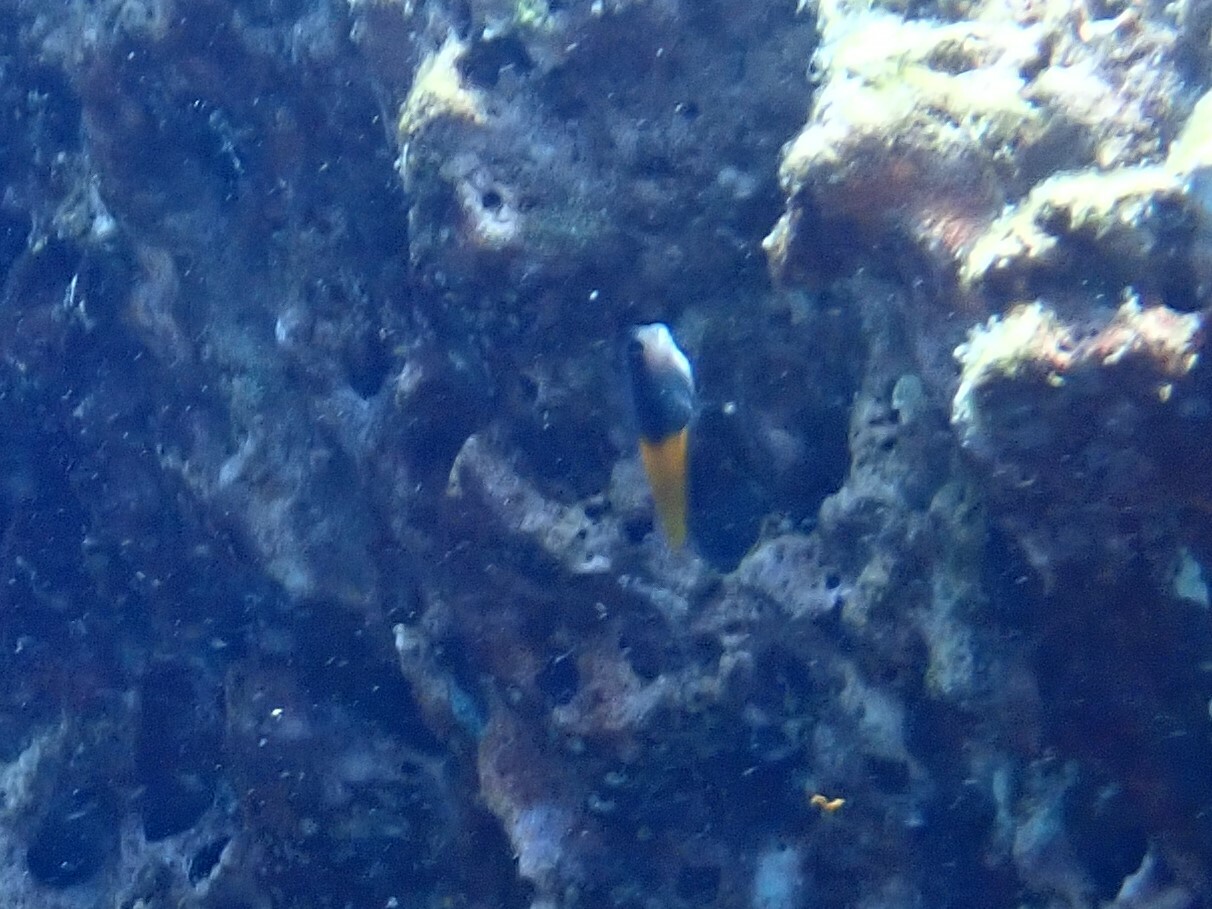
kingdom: Animalia
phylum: Chordata
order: Perciformes
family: Blenniidae
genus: Ecsenius
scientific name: Ecsenius bicolor
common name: Bicolor blenny
